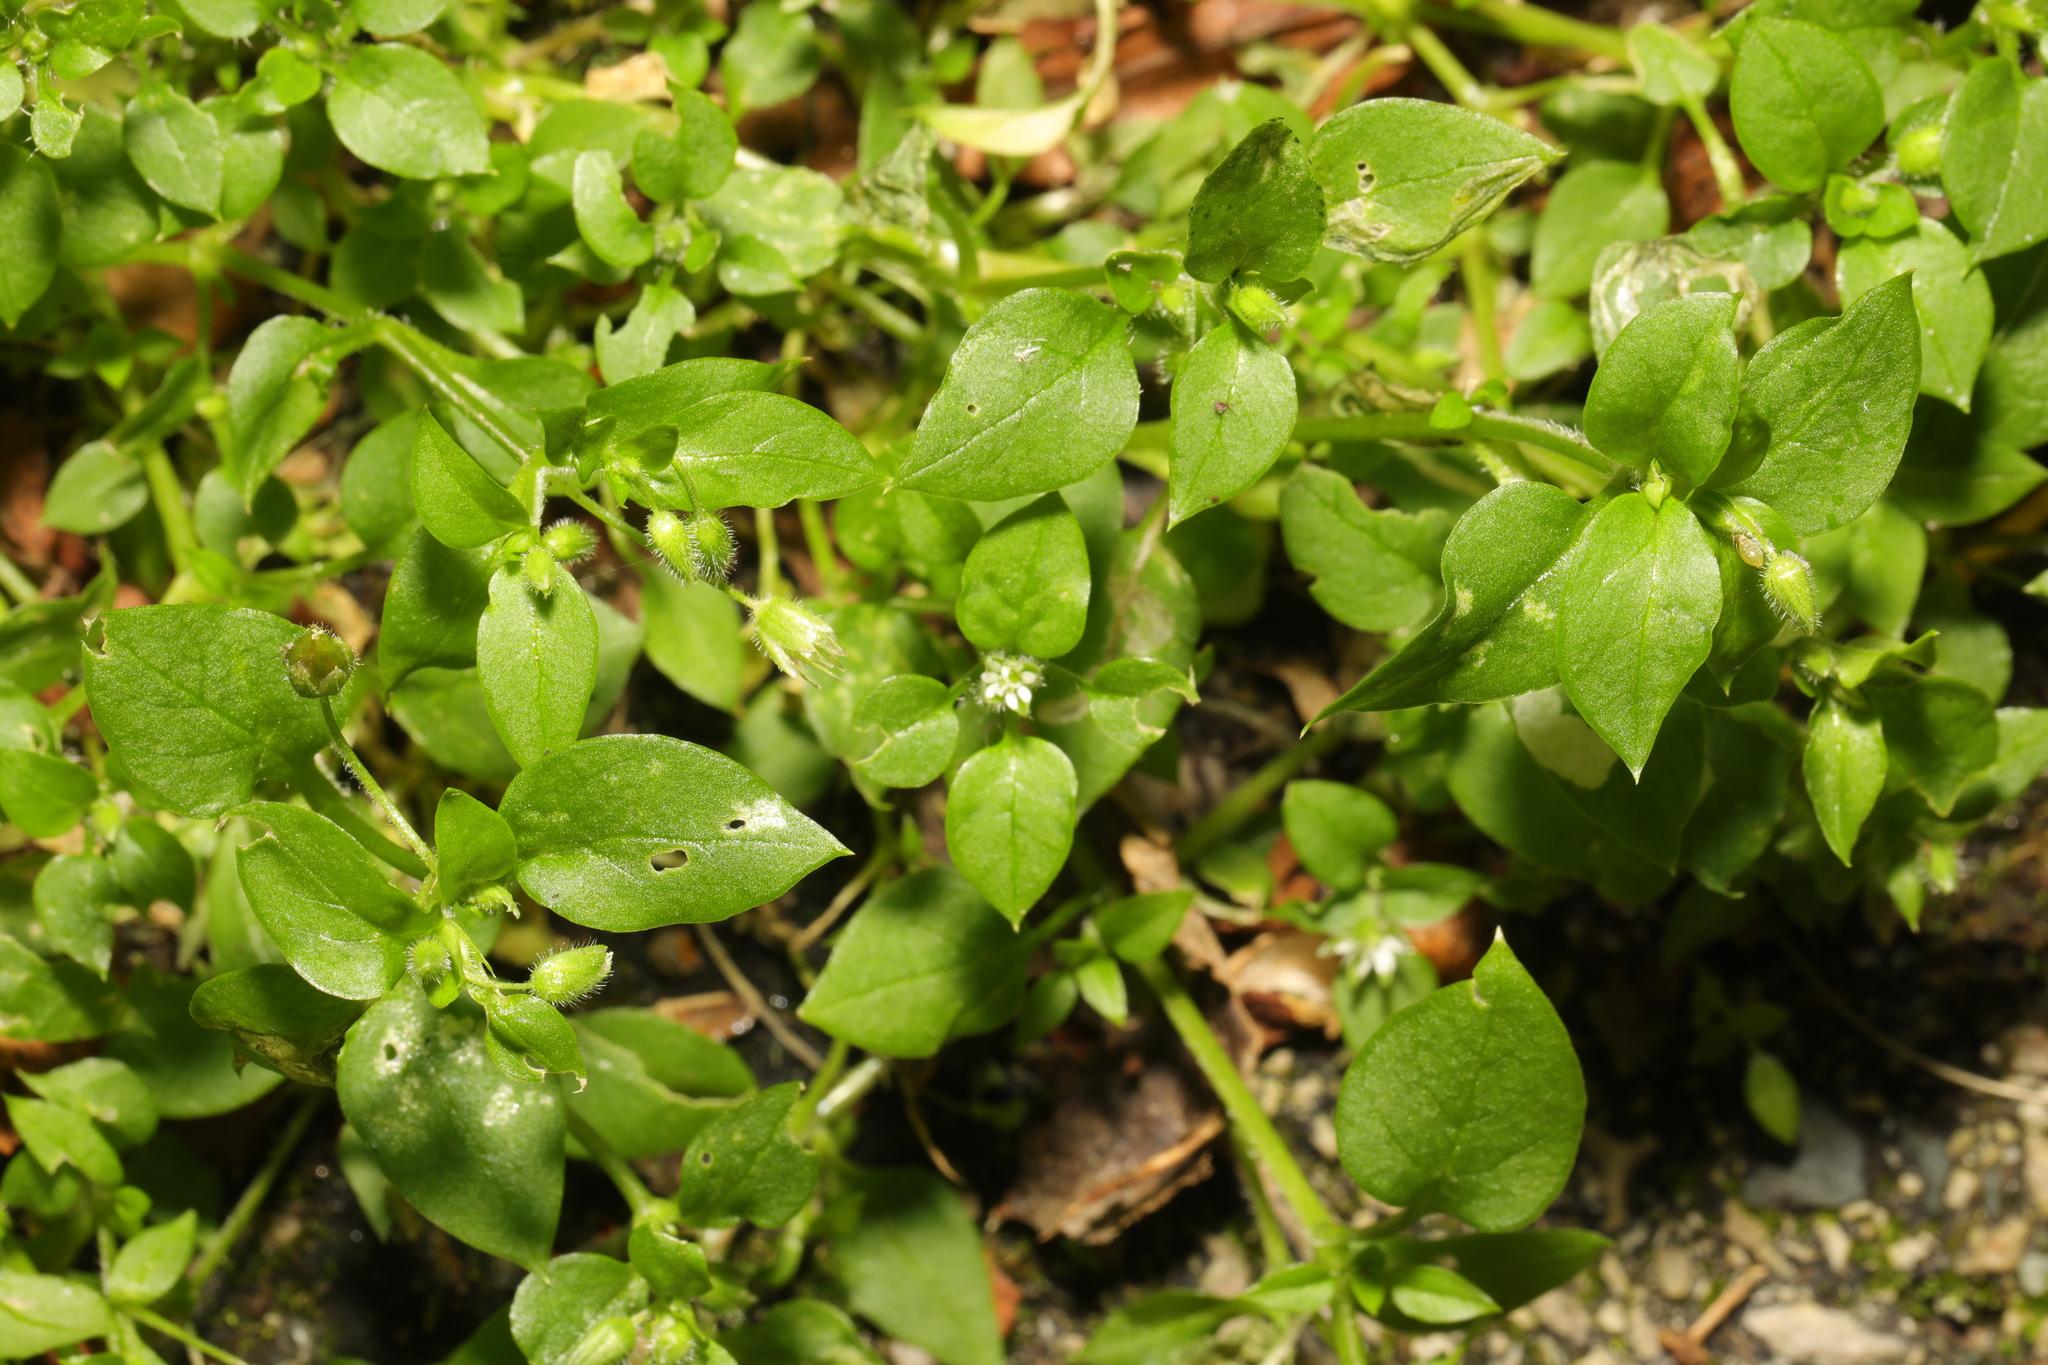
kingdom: Plantae
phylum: Tracheophyta
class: Magnoliopsida
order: Caryophyllales
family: Caryophyllaceae
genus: Stellaria
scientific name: Stellaria media
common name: Common chickweed
